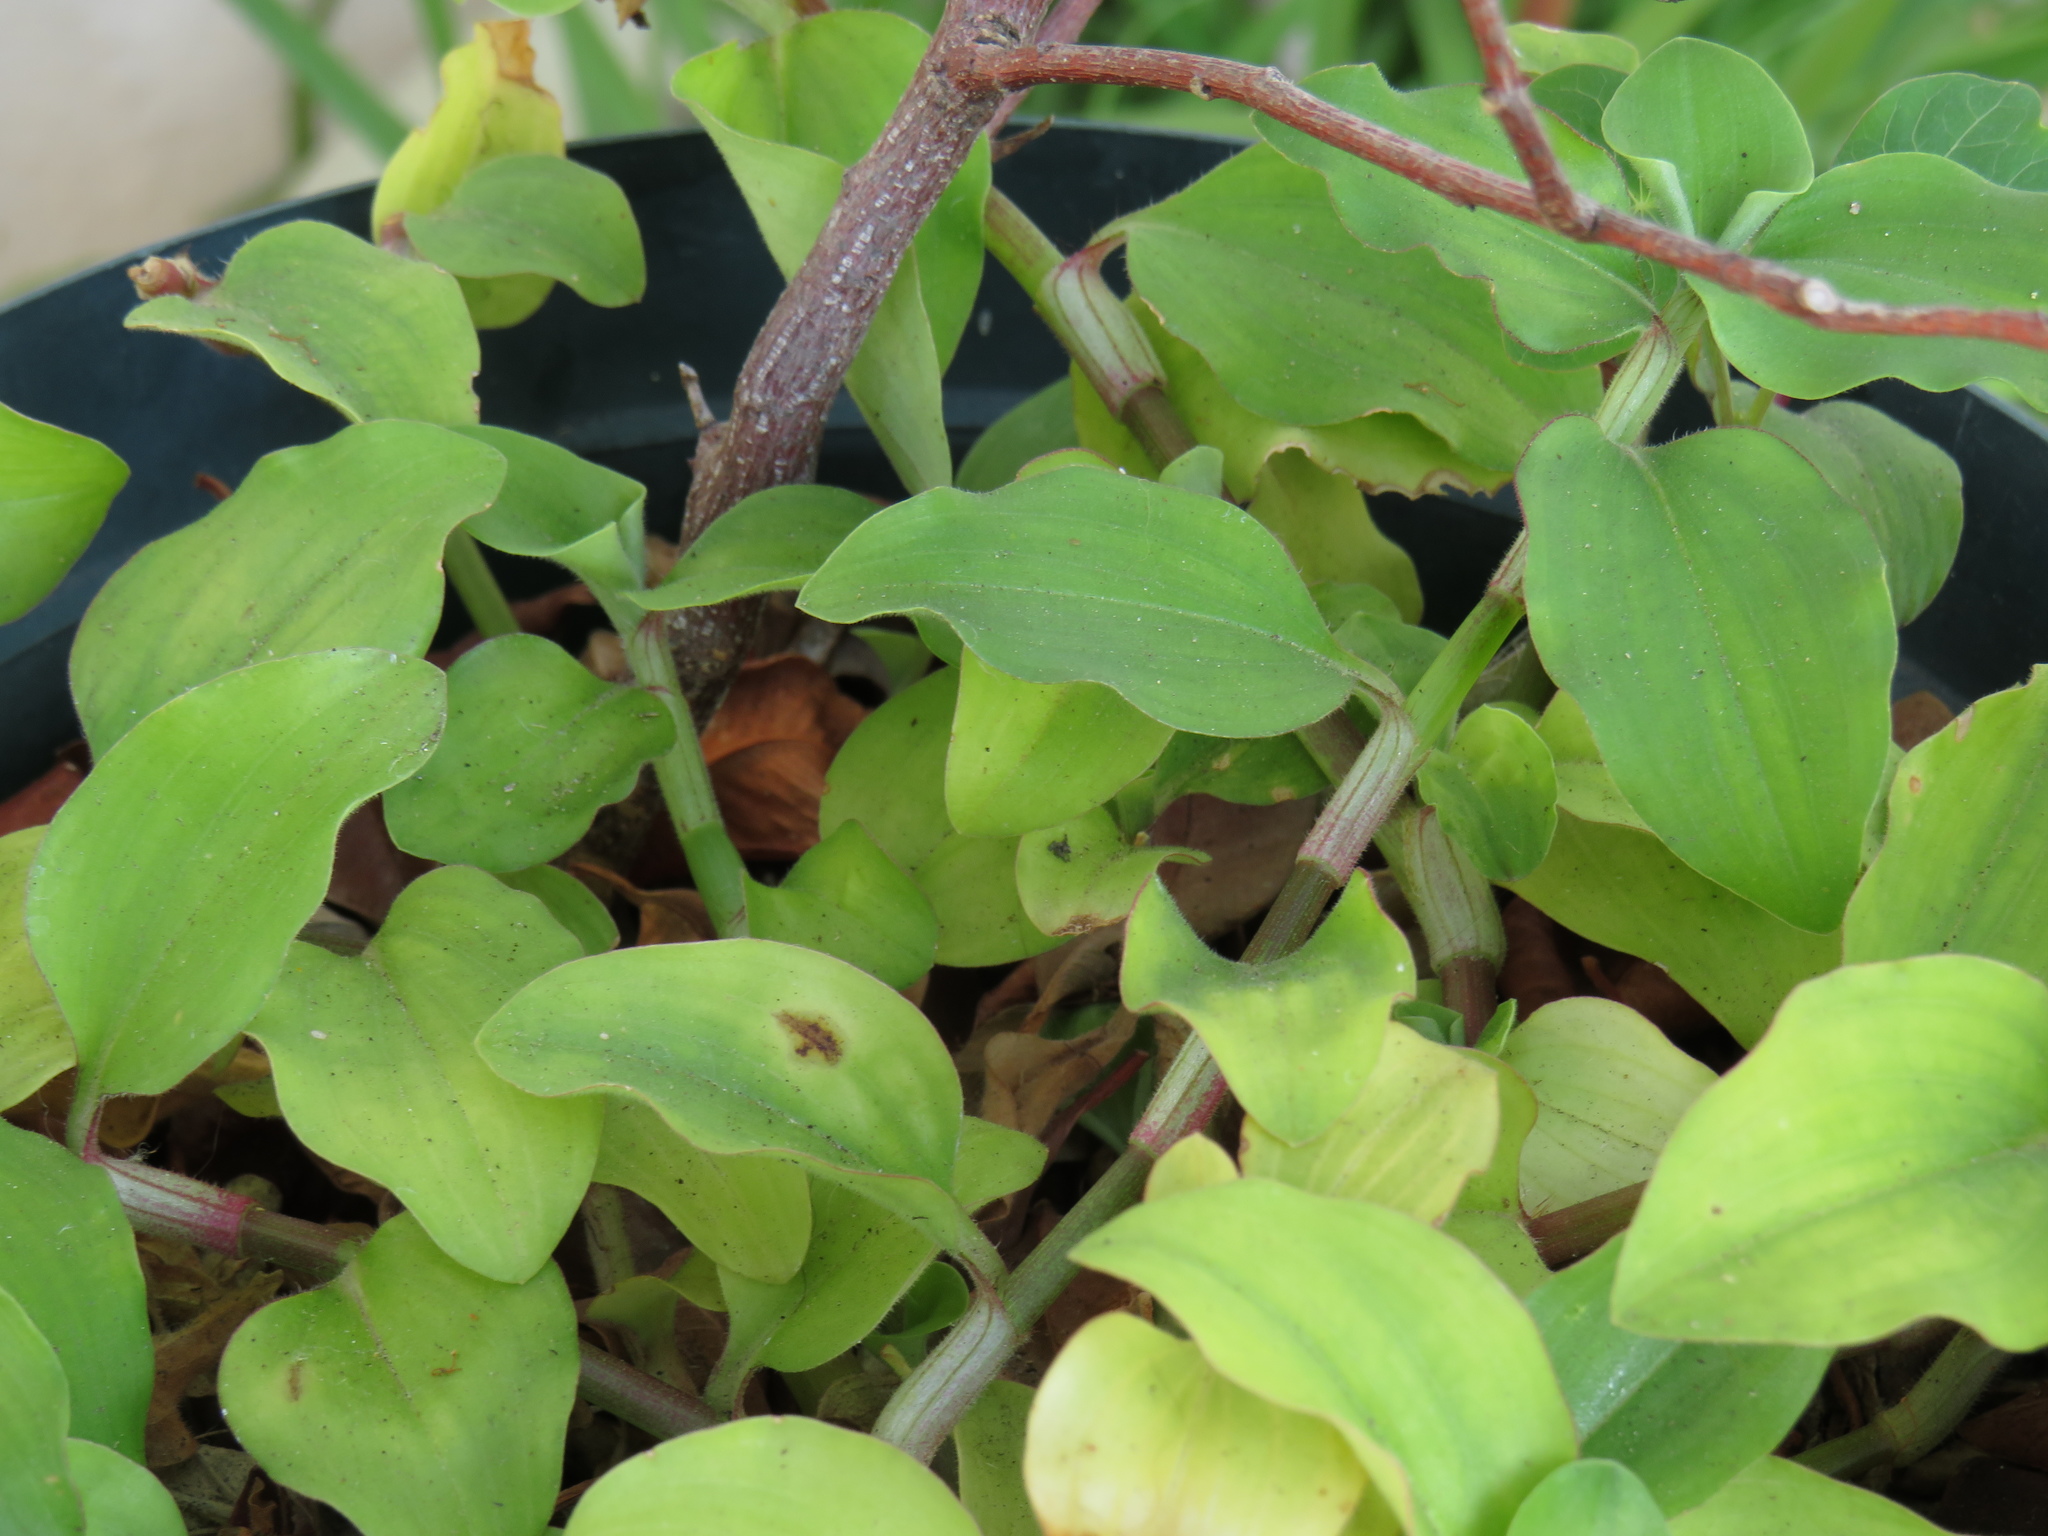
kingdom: Plantae
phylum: Tracheophyta
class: Liliopsida
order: Commelinales
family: Commelinaceae
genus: Commelina
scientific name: Commelina benghalensis
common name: Jio
